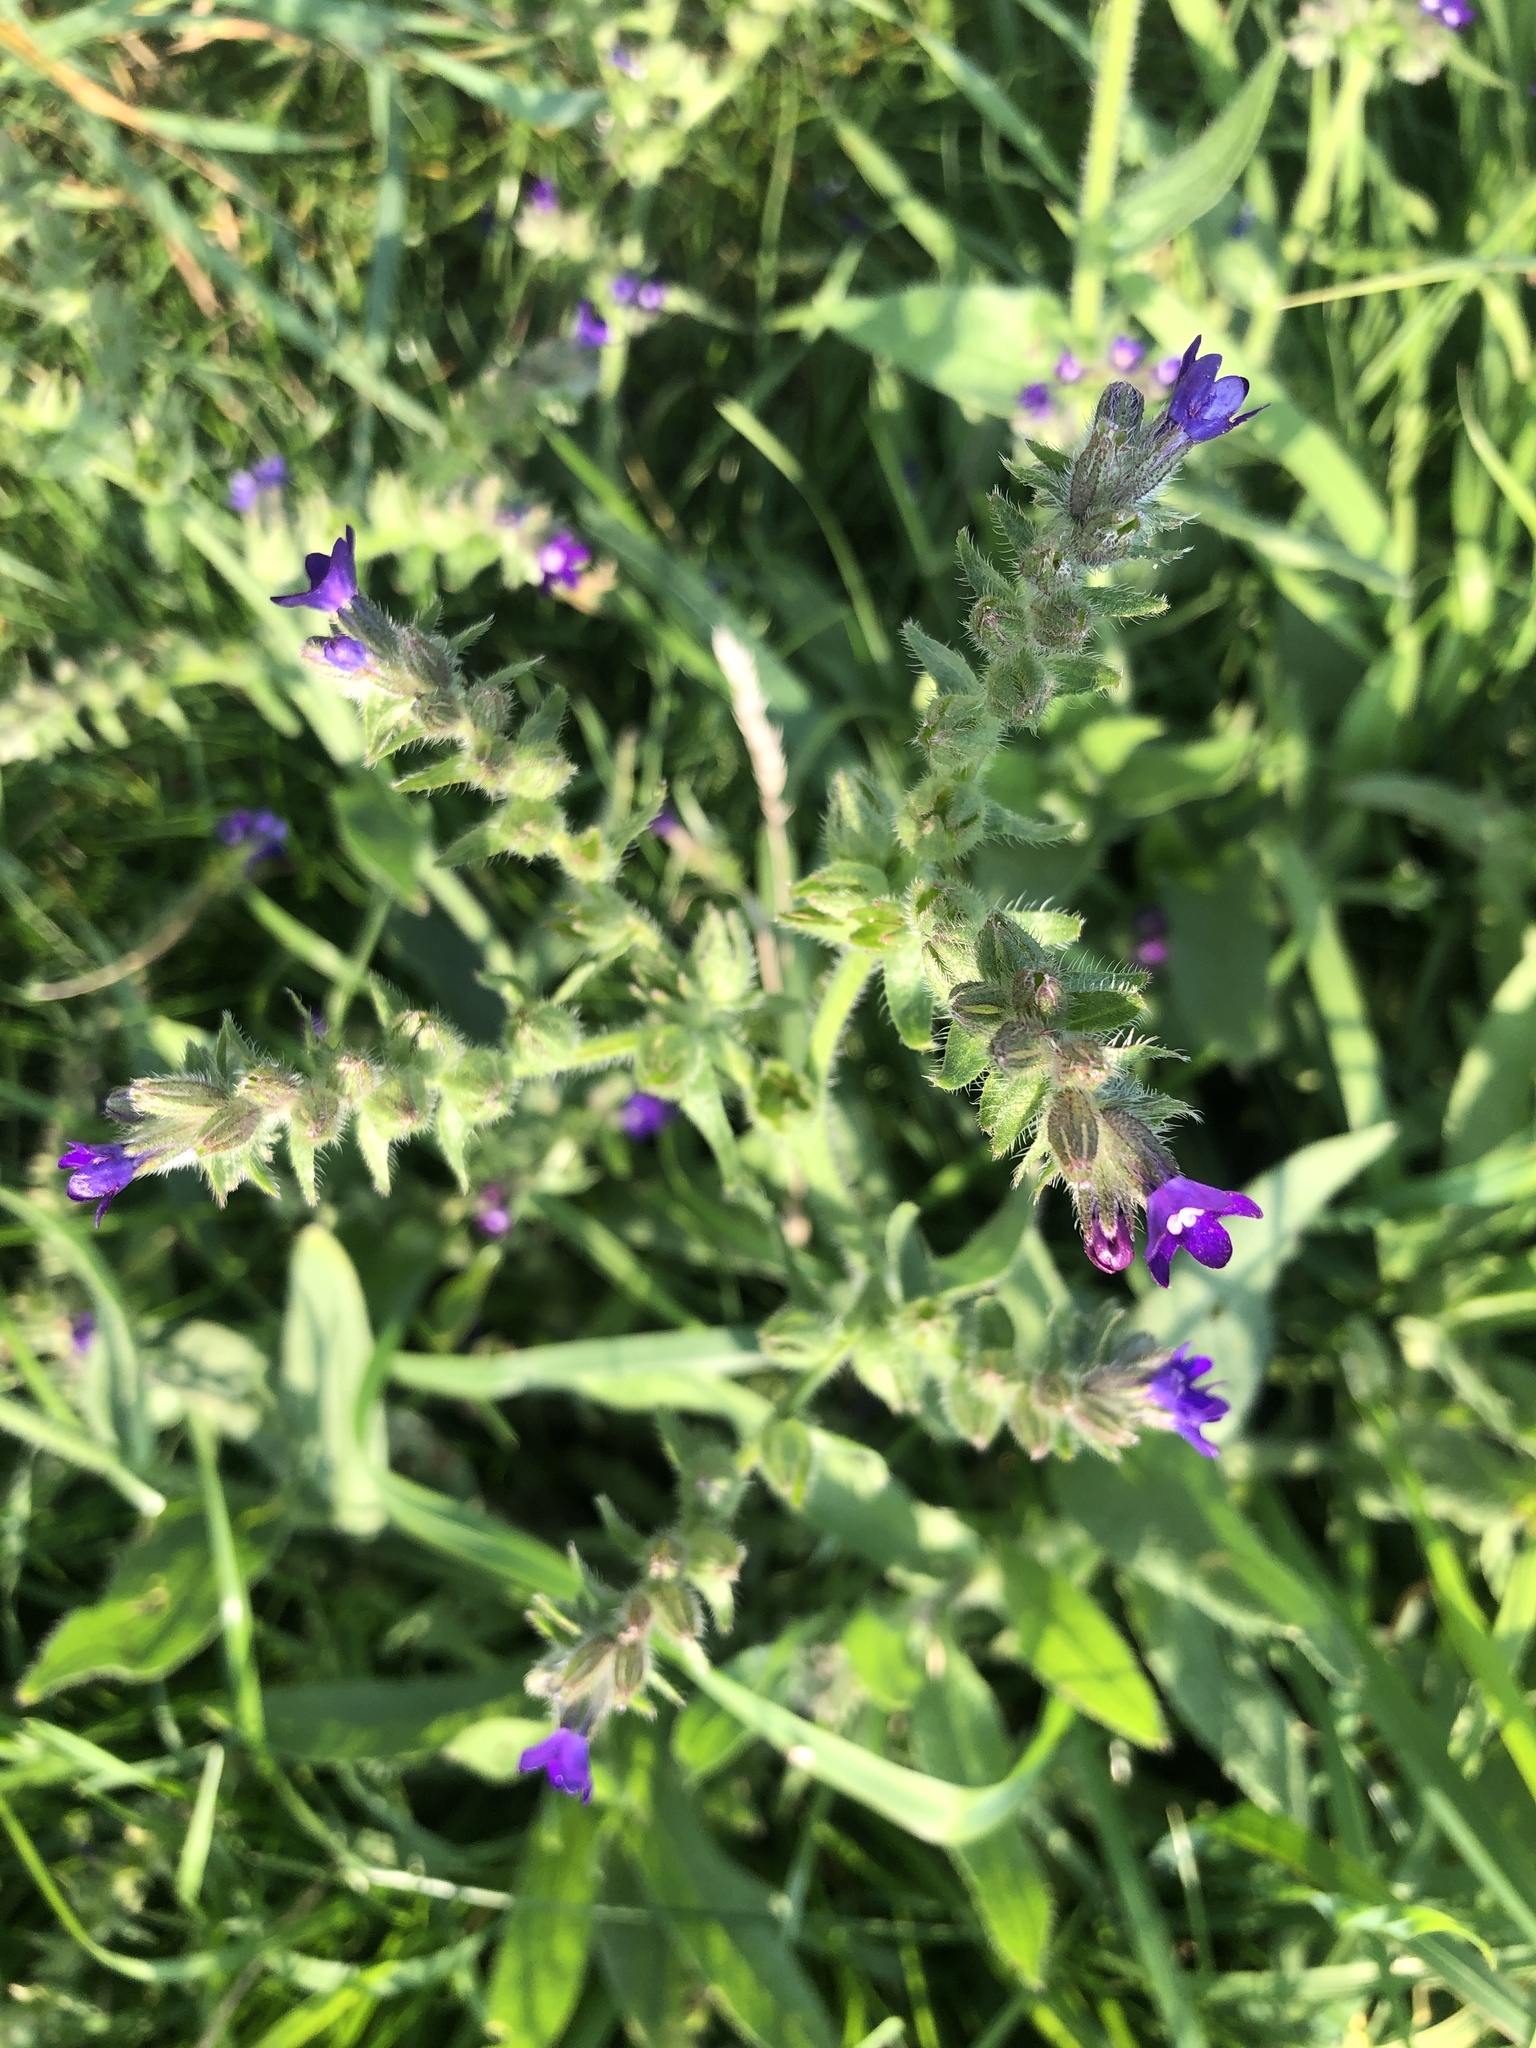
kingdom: Plantae
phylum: Tracheophyta
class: Magnoliopsida
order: Boraginales
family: Boraginaceae
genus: Anchusa
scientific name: Anchusa officinalis
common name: Alkanet
